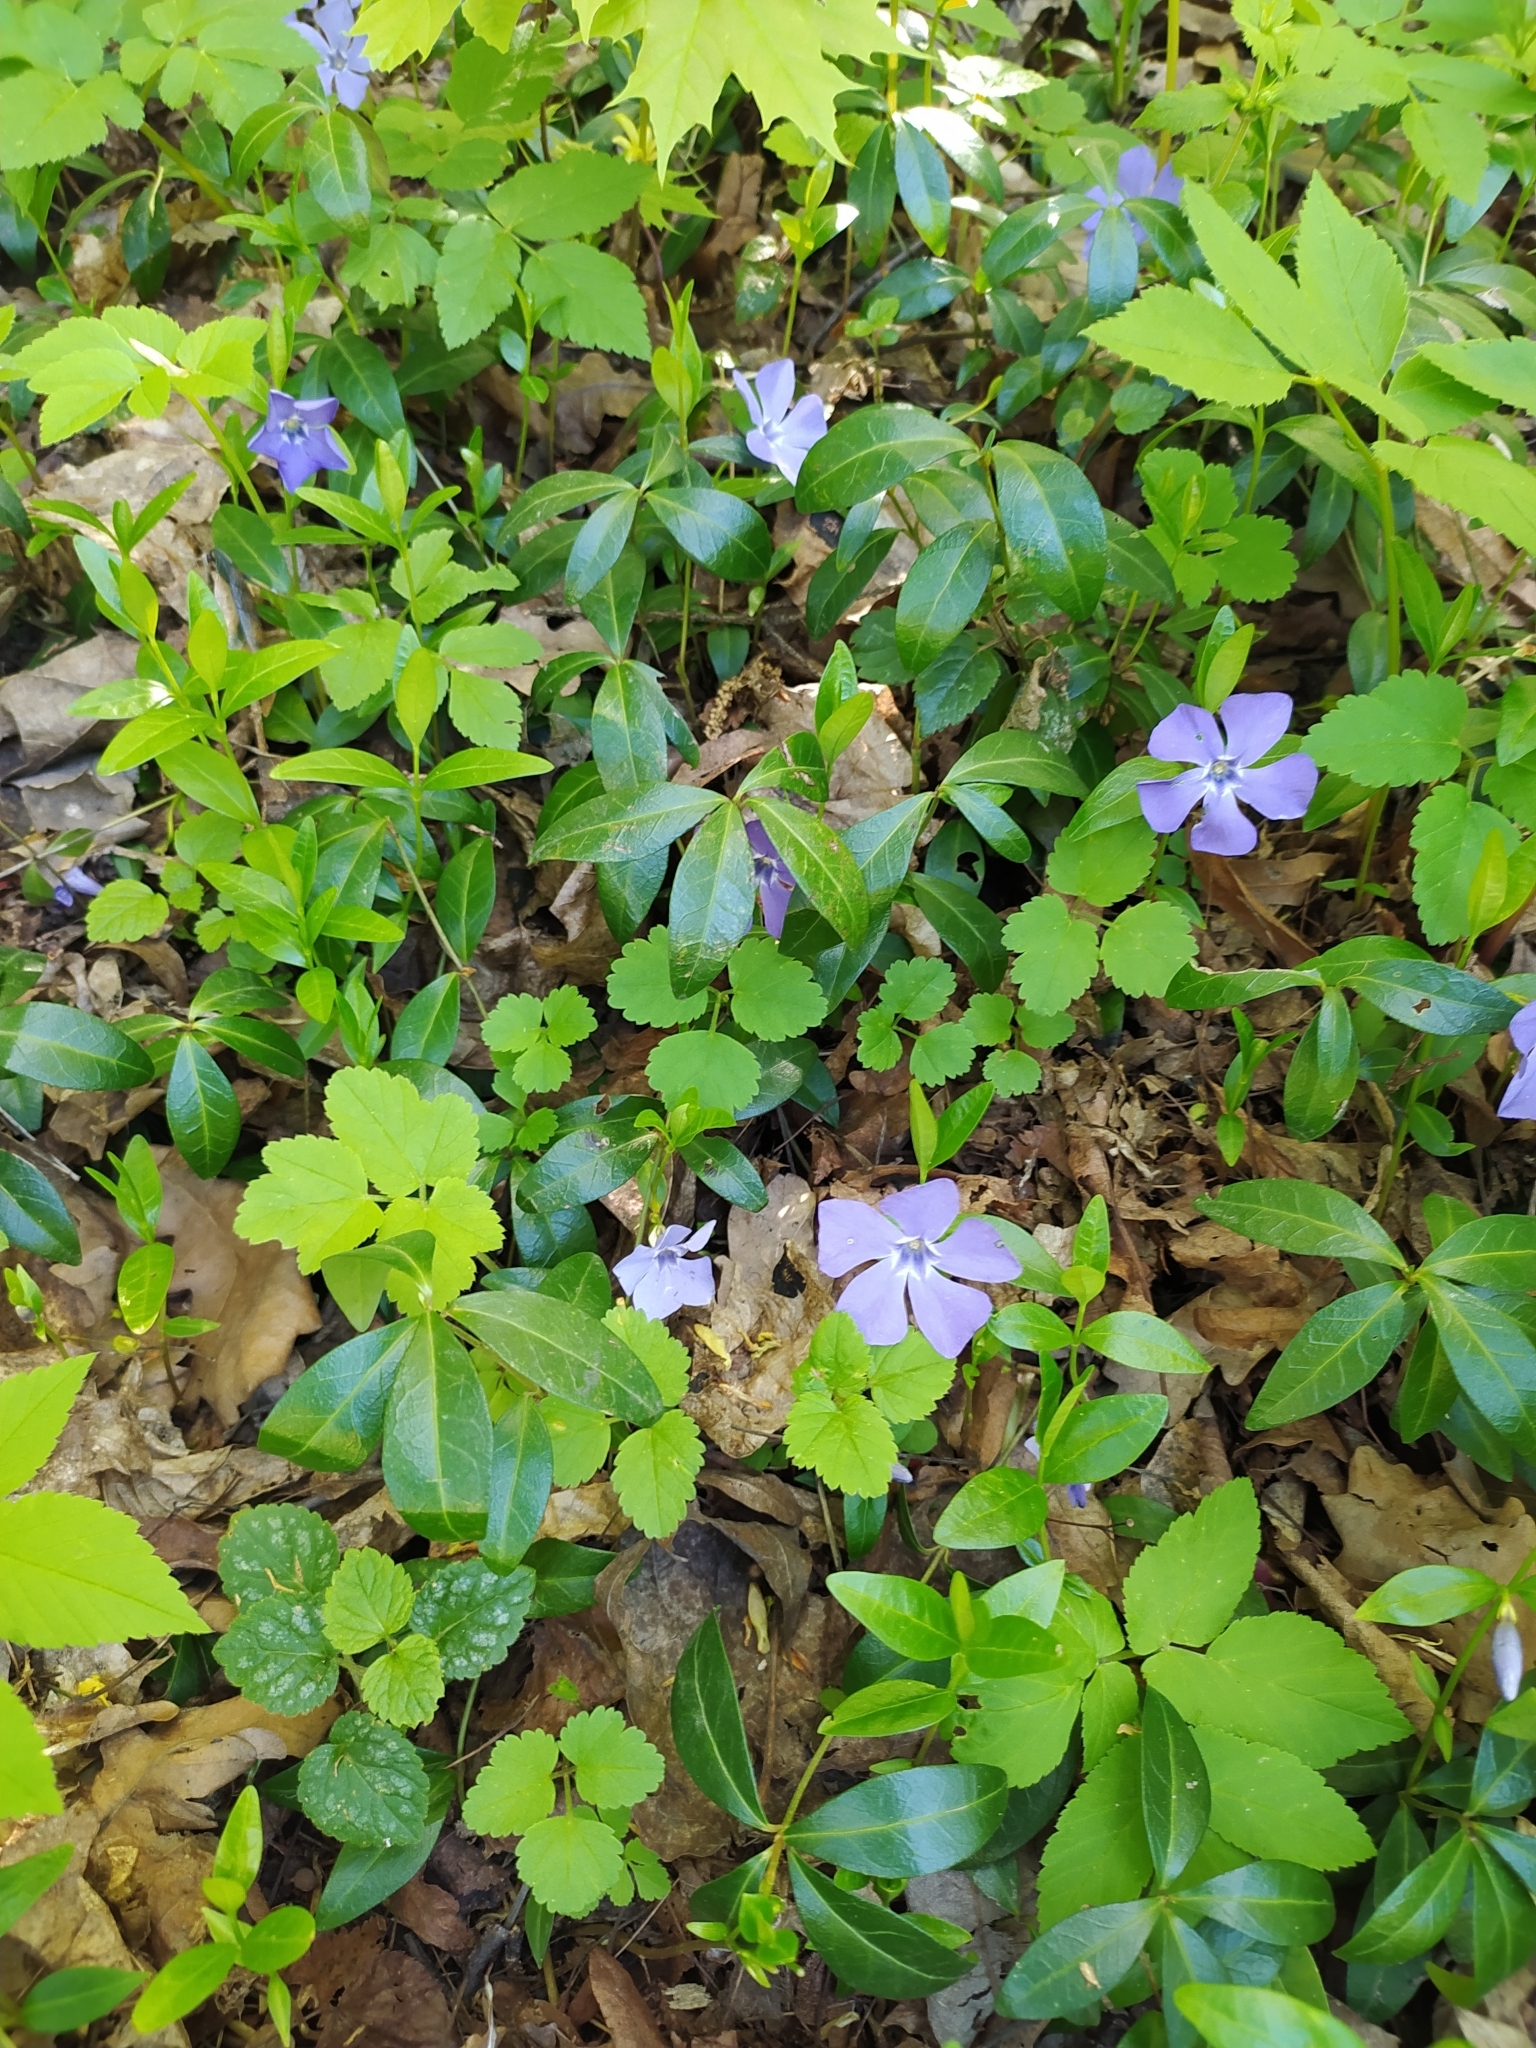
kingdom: Plantae
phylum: Tracheophyta
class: Magnoliopsida
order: Gentianales
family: Apocynaceae
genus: Vinca
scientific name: Vinca minor
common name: Lesser periwinkle
